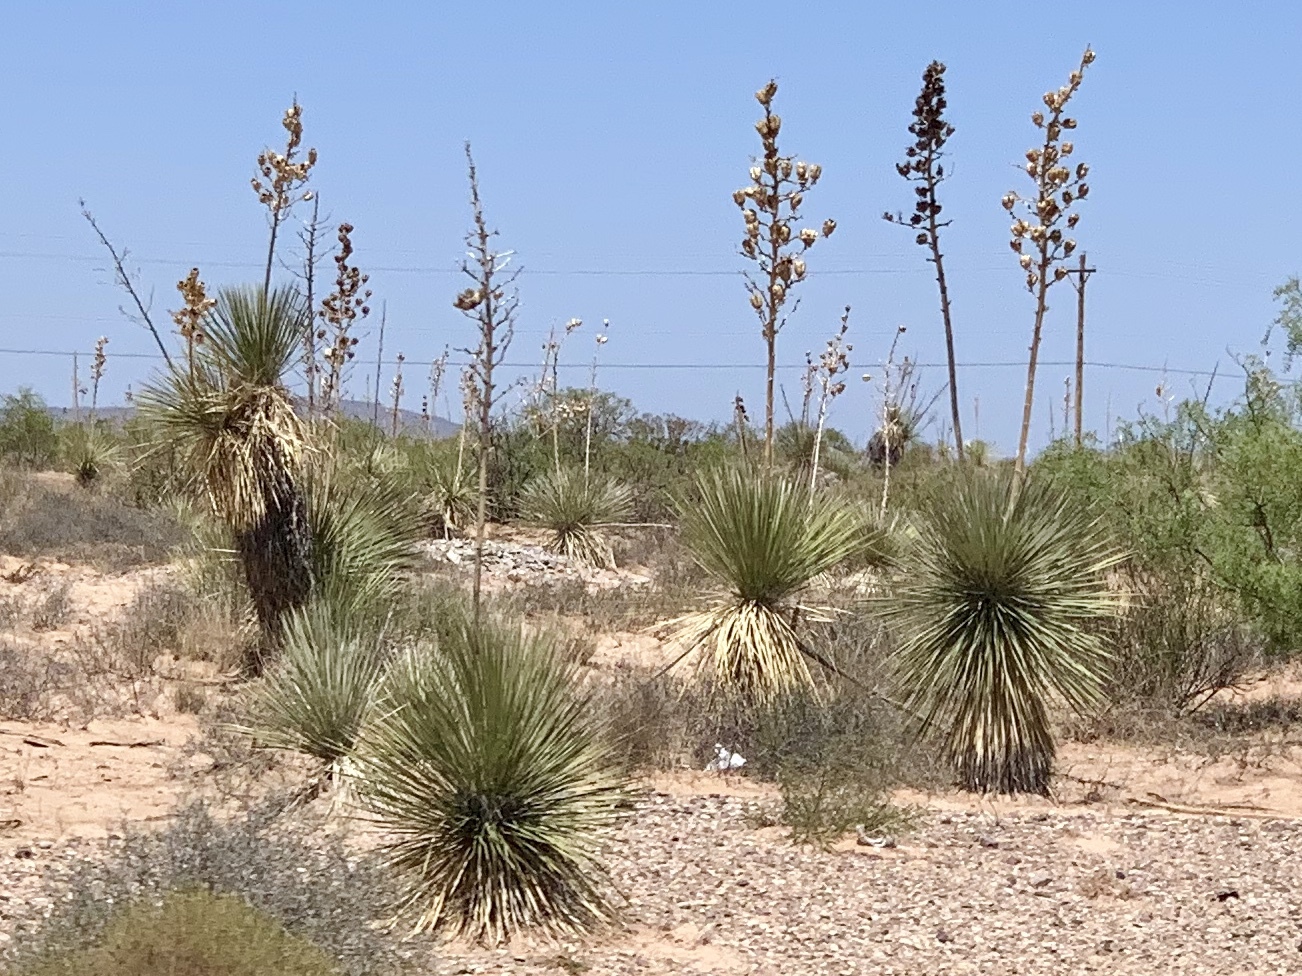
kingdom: Plantae
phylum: Tracheophyta
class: Liliopsida
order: Asparagales
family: Asparagaceae
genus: Yucca
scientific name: Yucca elata
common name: Palmella
